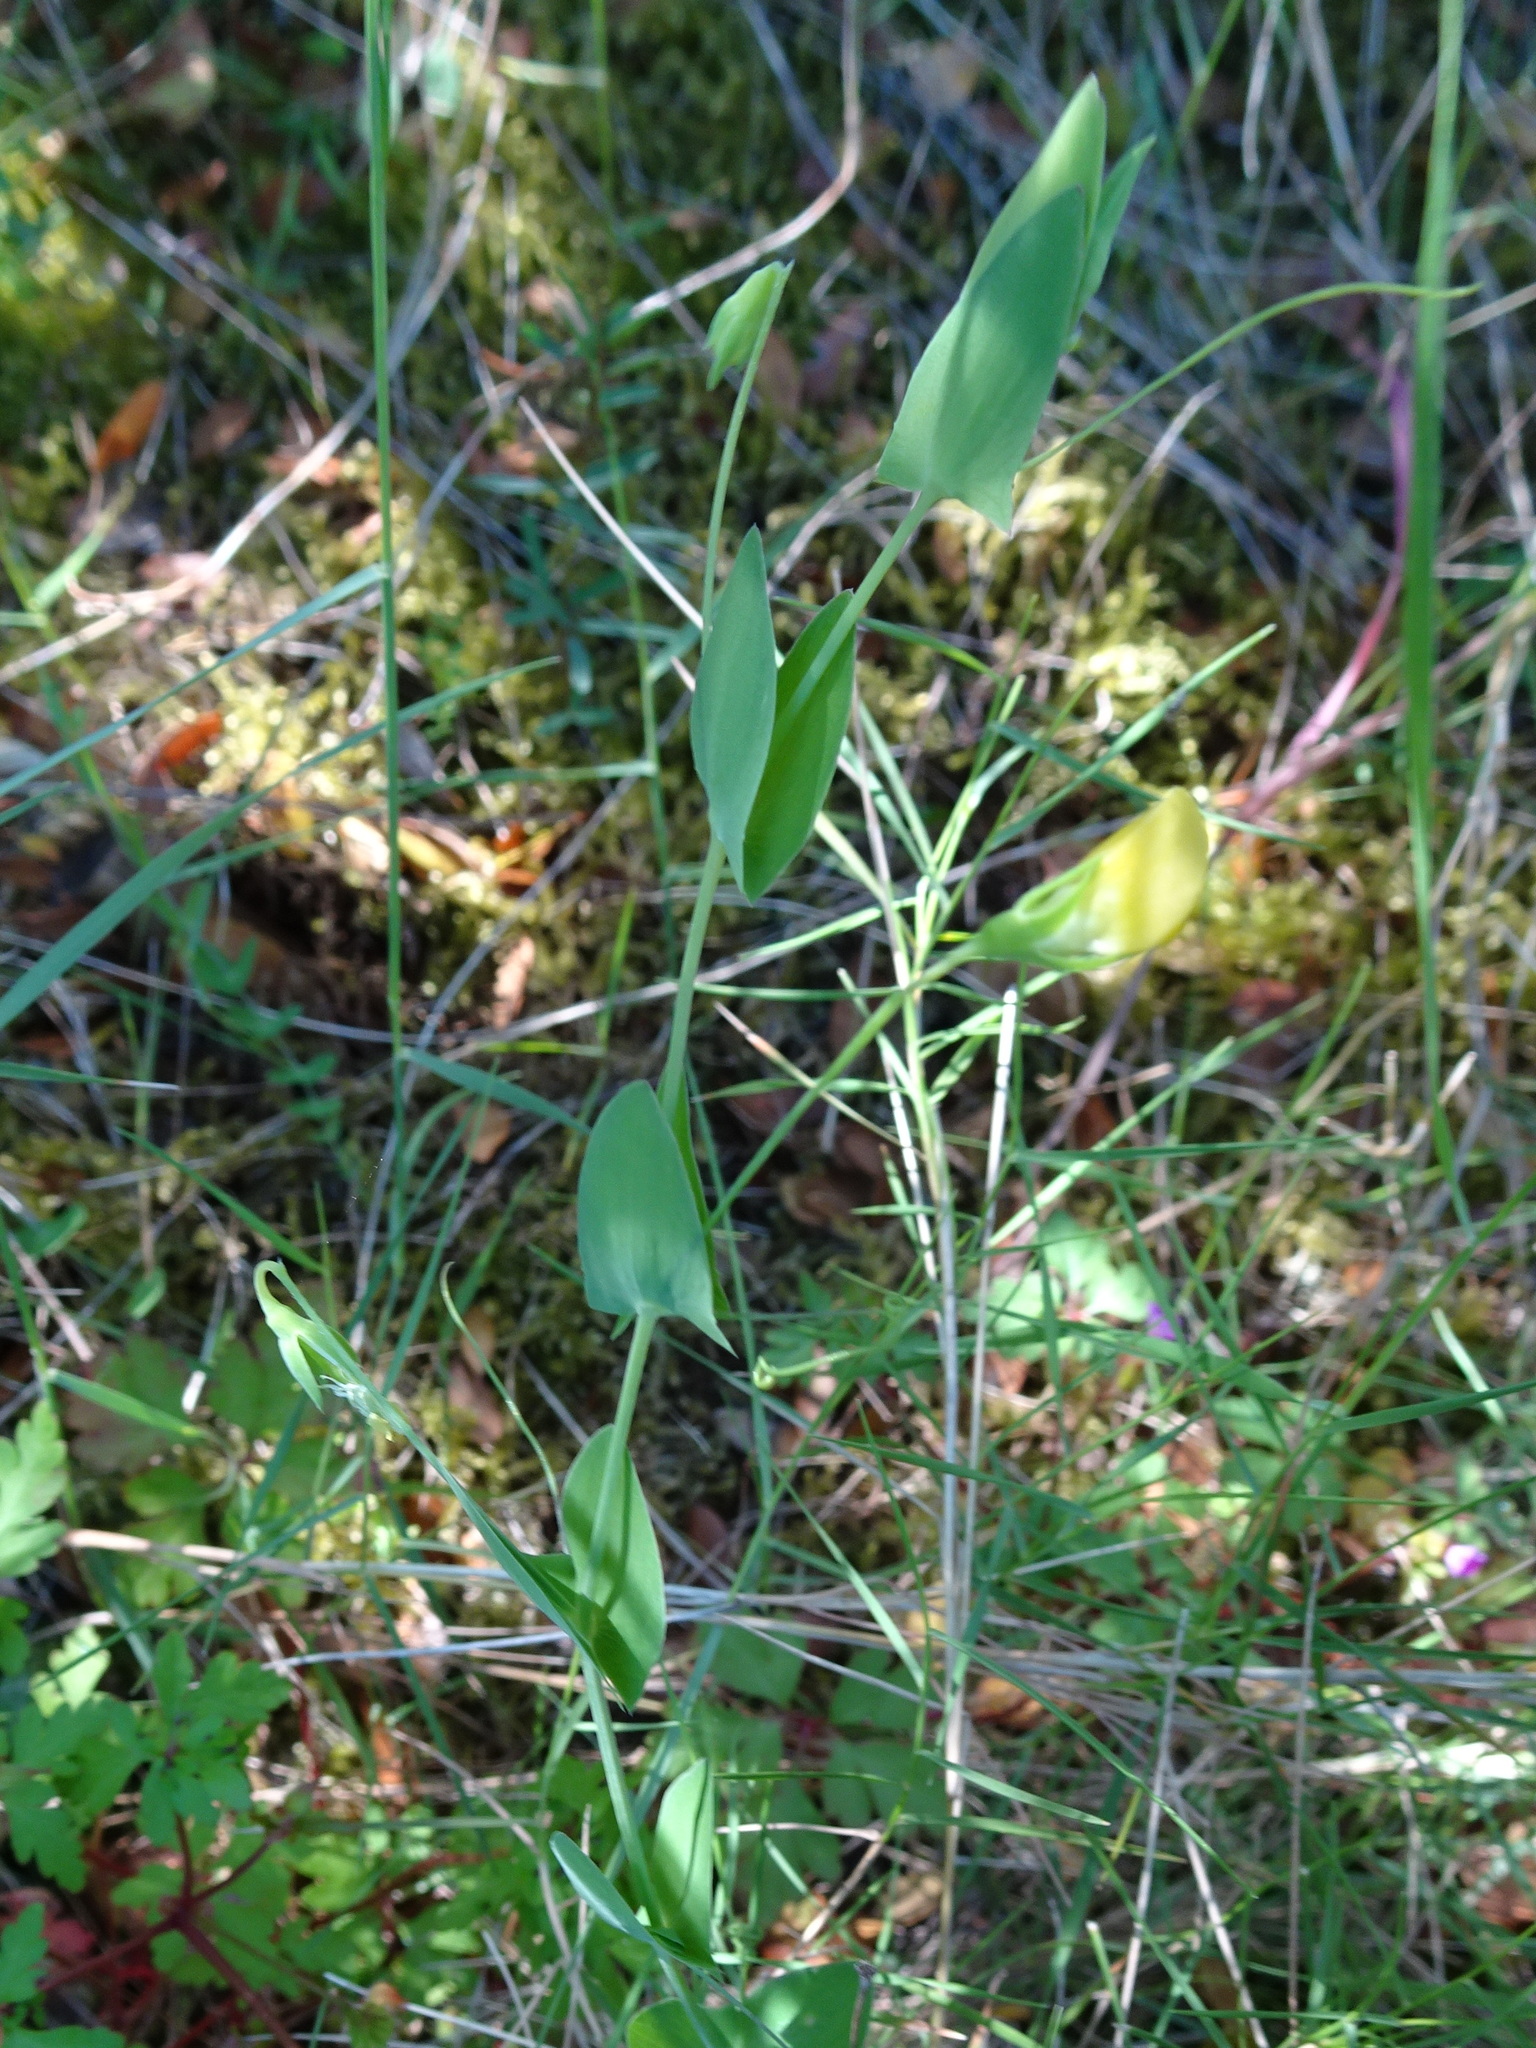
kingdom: Plantae
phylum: Tracheophyta
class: Magnoliopsida
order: Fabales
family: Fabaceae
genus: Lathyrus
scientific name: Lathyrus aphaca
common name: Yellow vetchling
